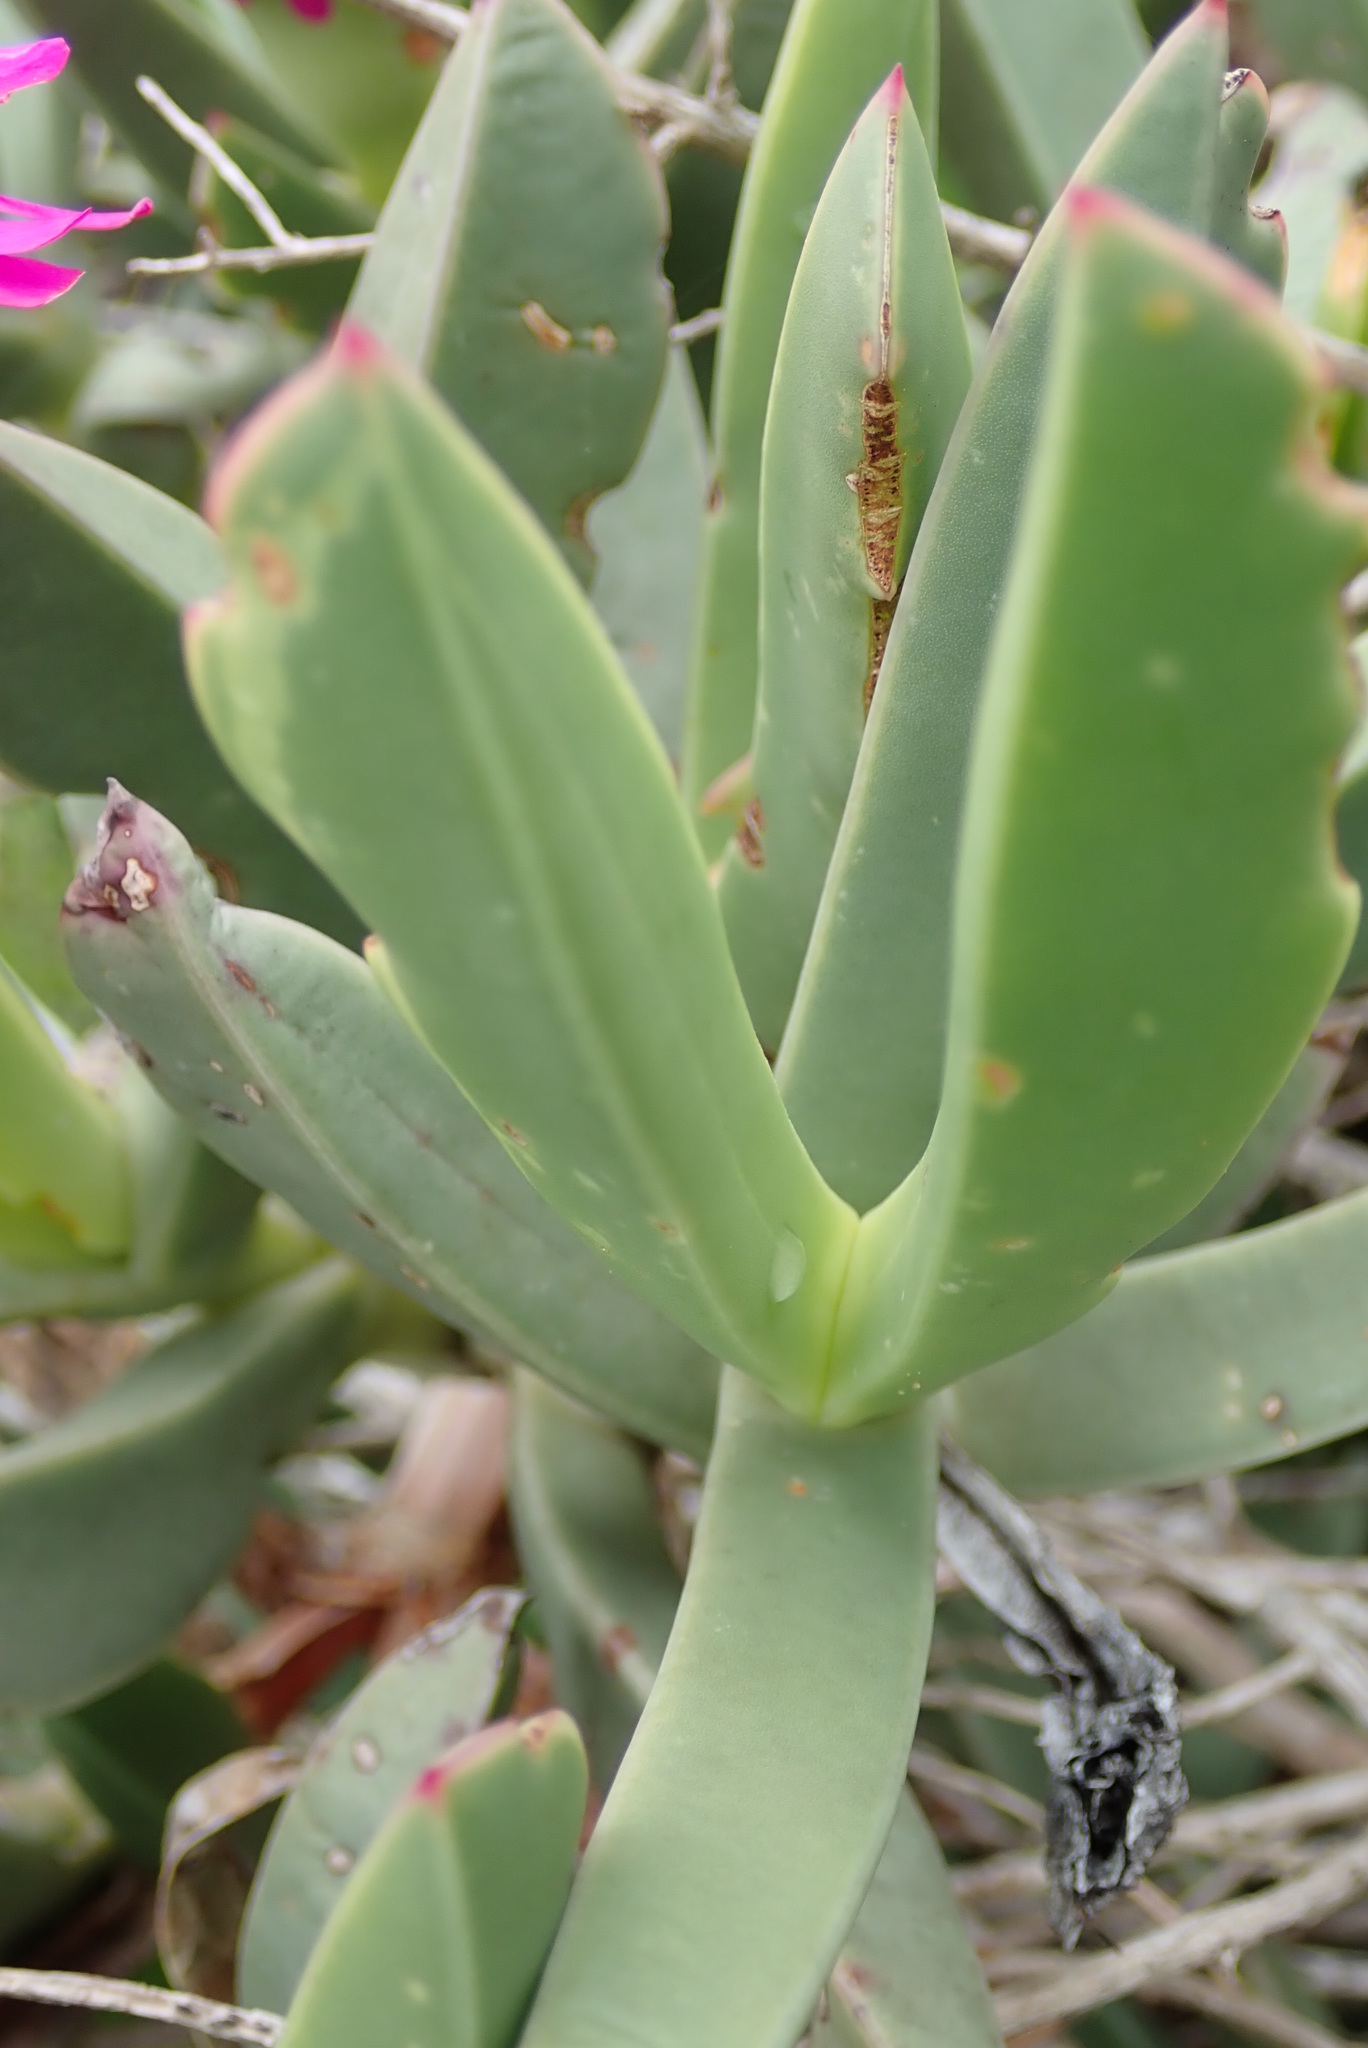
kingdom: Plantae
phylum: Tracheophyta
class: Magnoliopsida
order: Caryophyllales
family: Aizoaceae
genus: Carpobrotus
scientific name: Carpobrotus quadrifidus
